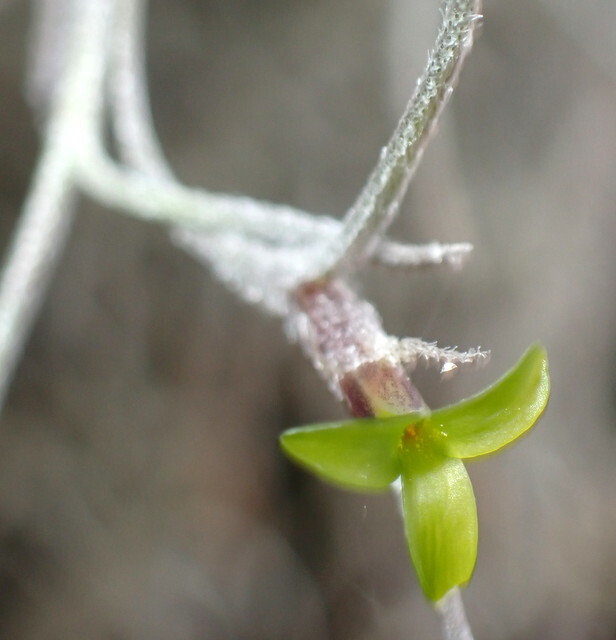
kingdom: Plantae
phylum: Tracheophyta
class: Liliopsida
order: Poales
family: Bromeliaceae
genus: Tillandsia
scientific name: Tillandsia usneoides
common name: Spanish moss
